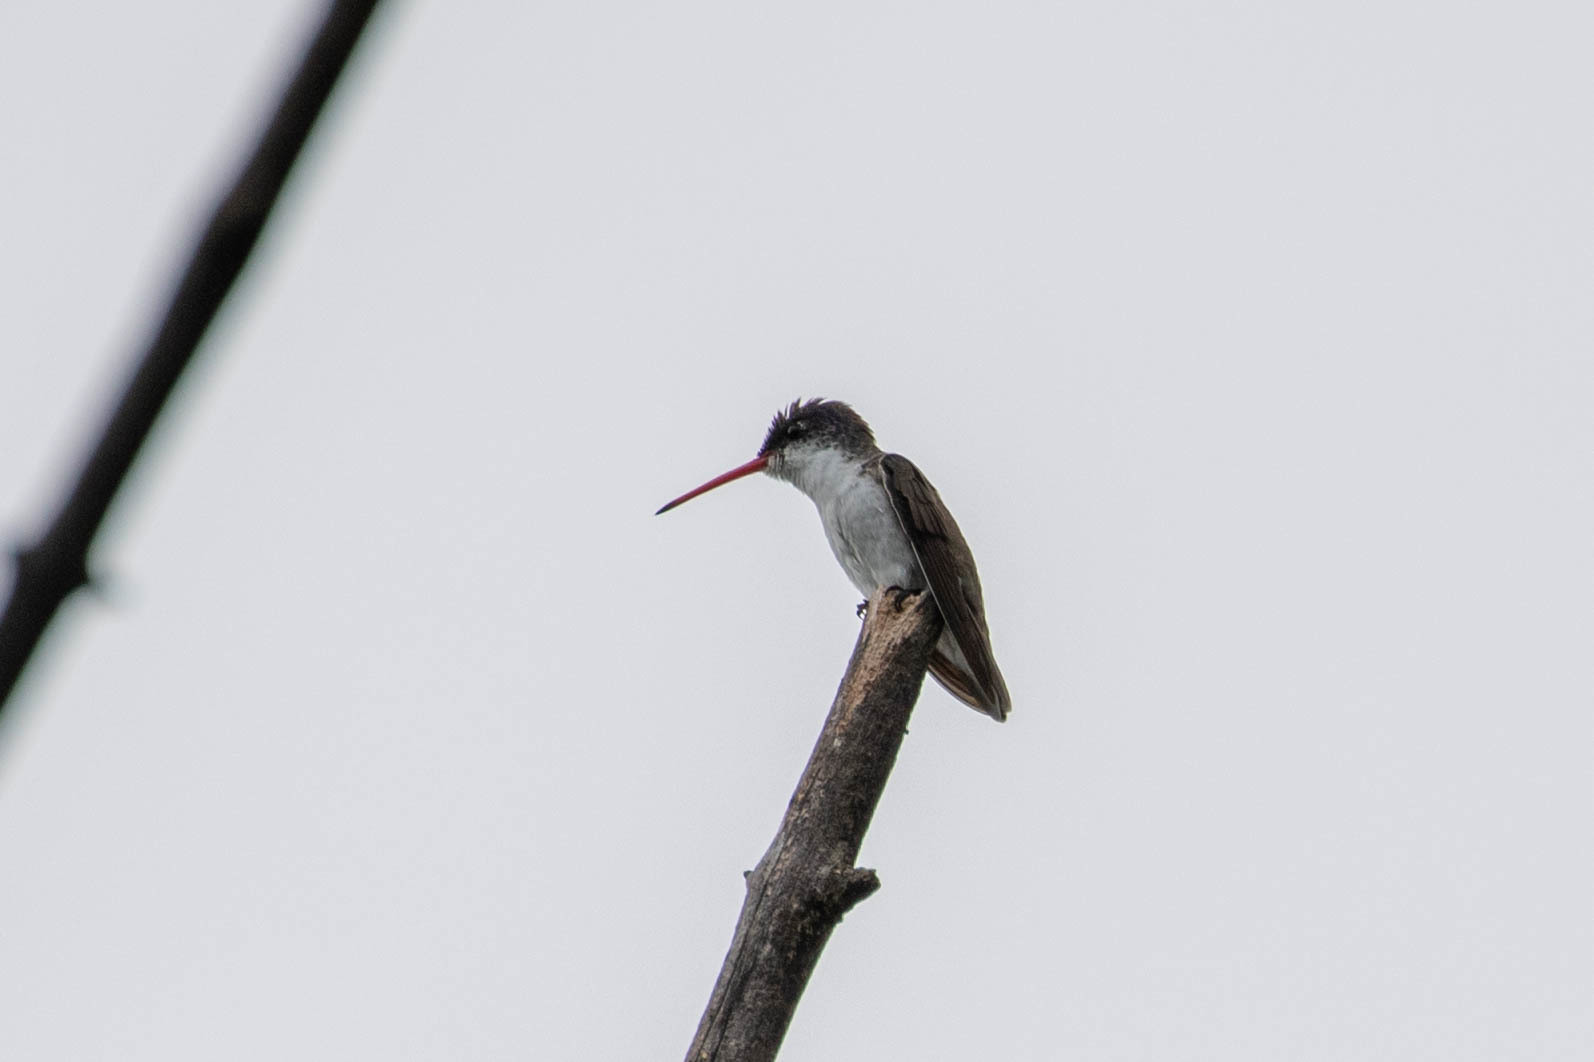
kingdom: Animalia
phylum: Chordata
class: Aves
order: Apodiformes
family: Trochilidae
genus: Leucolia
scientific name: Leucolia violiceps
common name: Violet-crowned hummingbird
